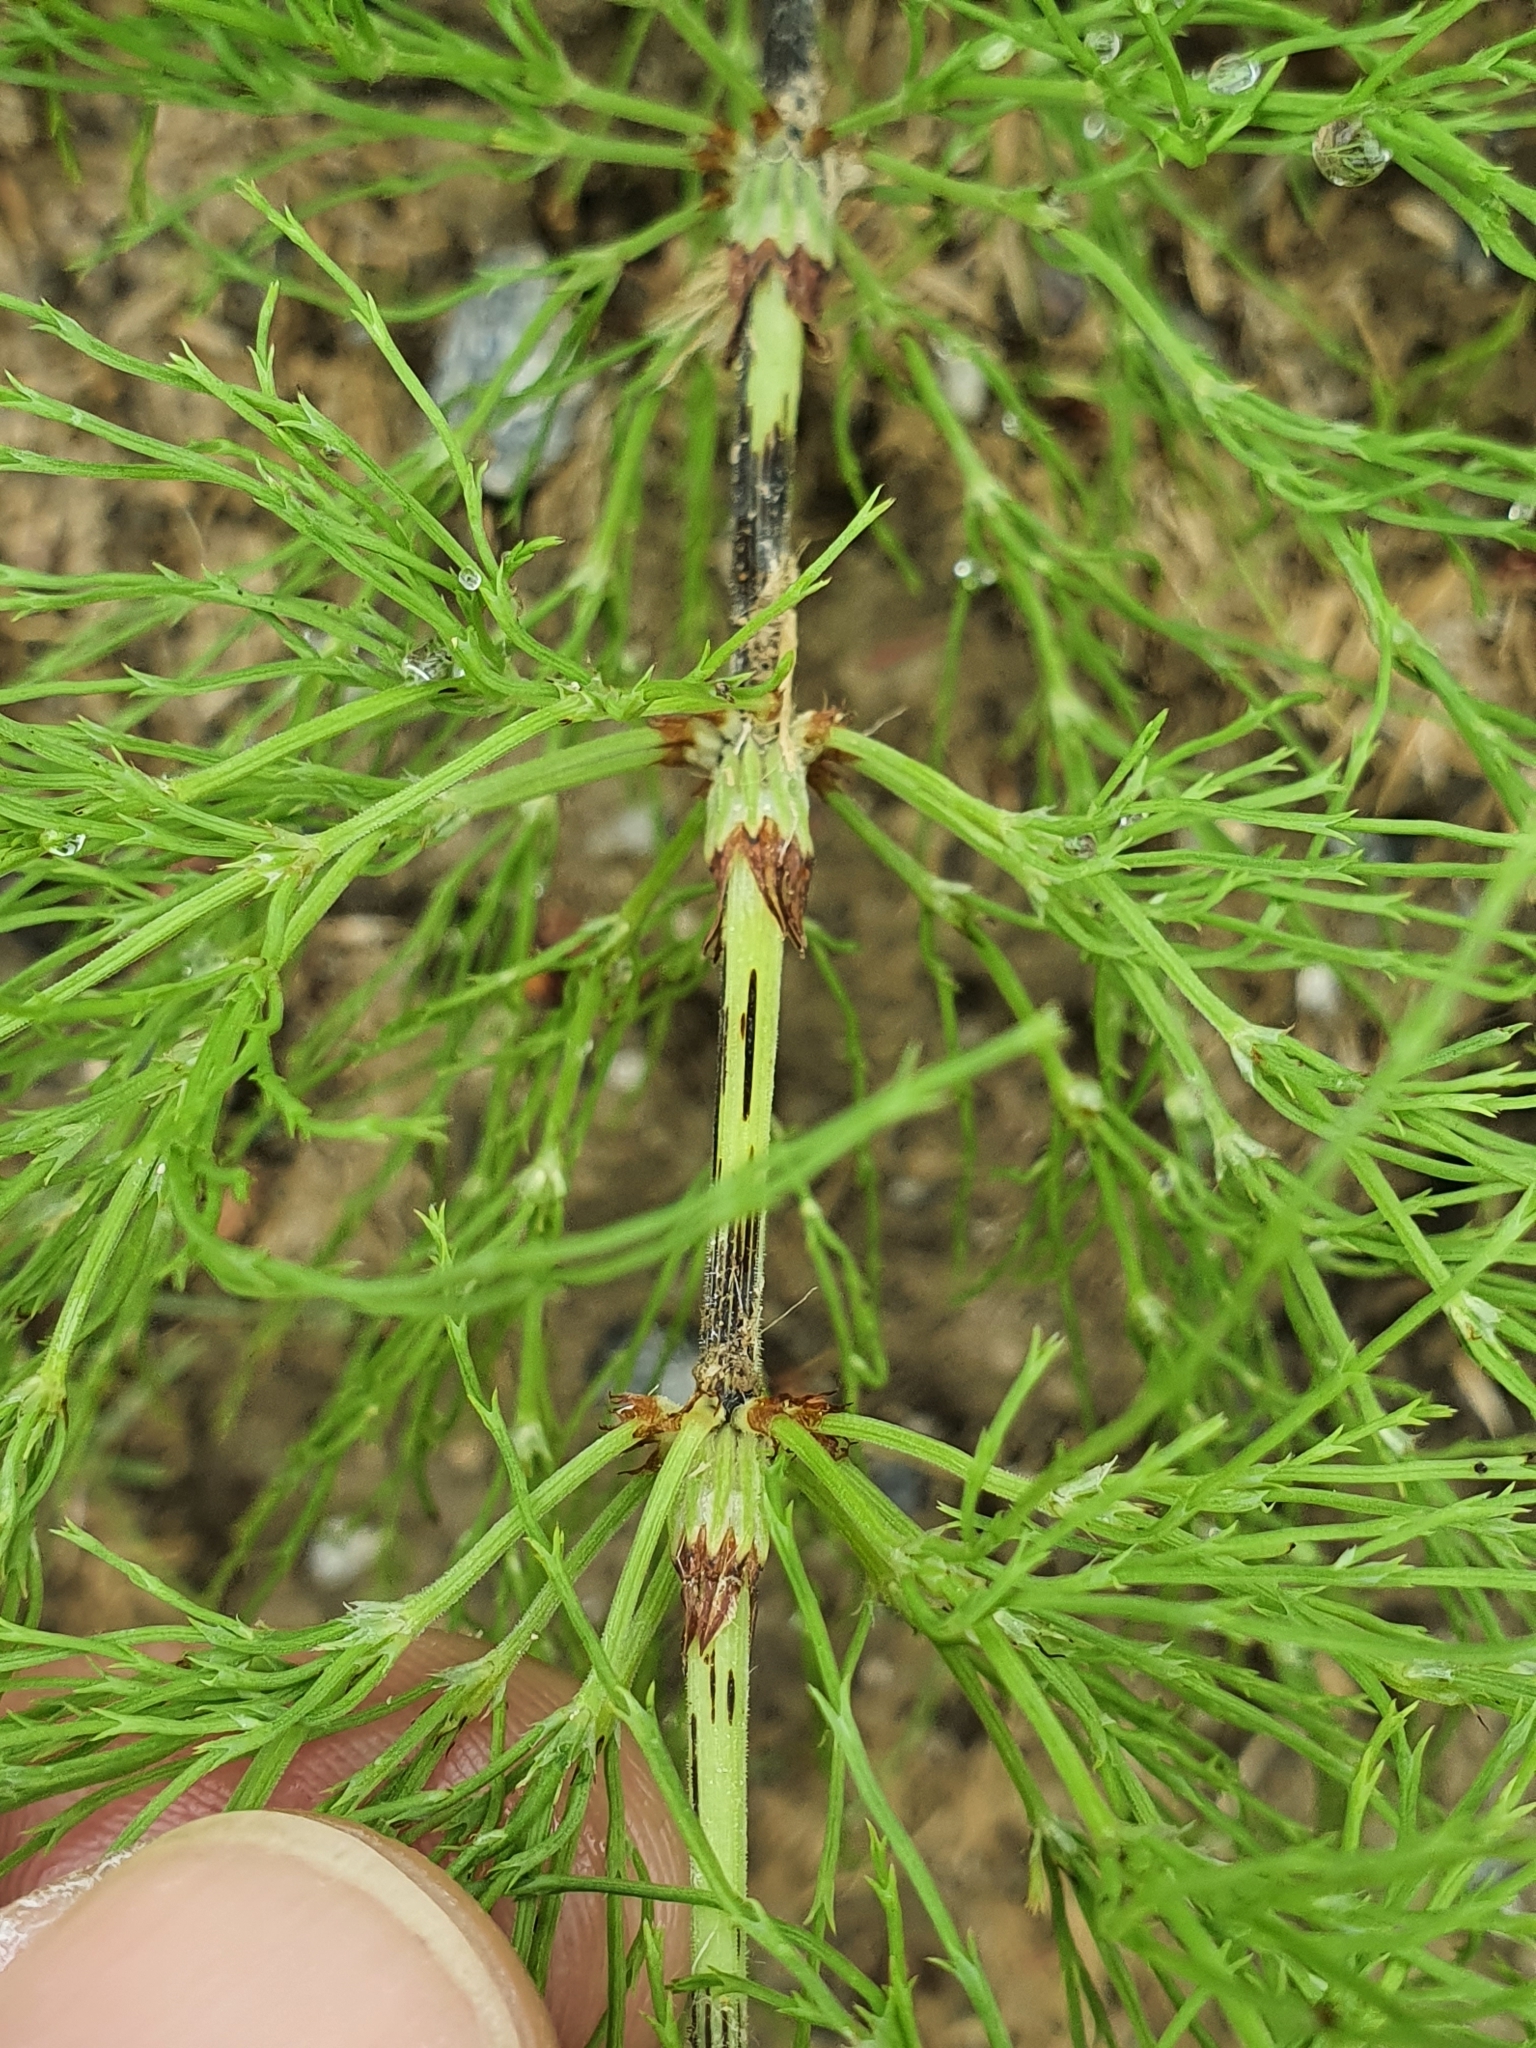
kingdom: Plantae
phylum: Tracheophyta
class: Polypodiopsida
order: Equisetales
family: Equisetaceae
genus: Equisetum
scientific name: Equisetum sylvaticum
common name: Wood horsetail
